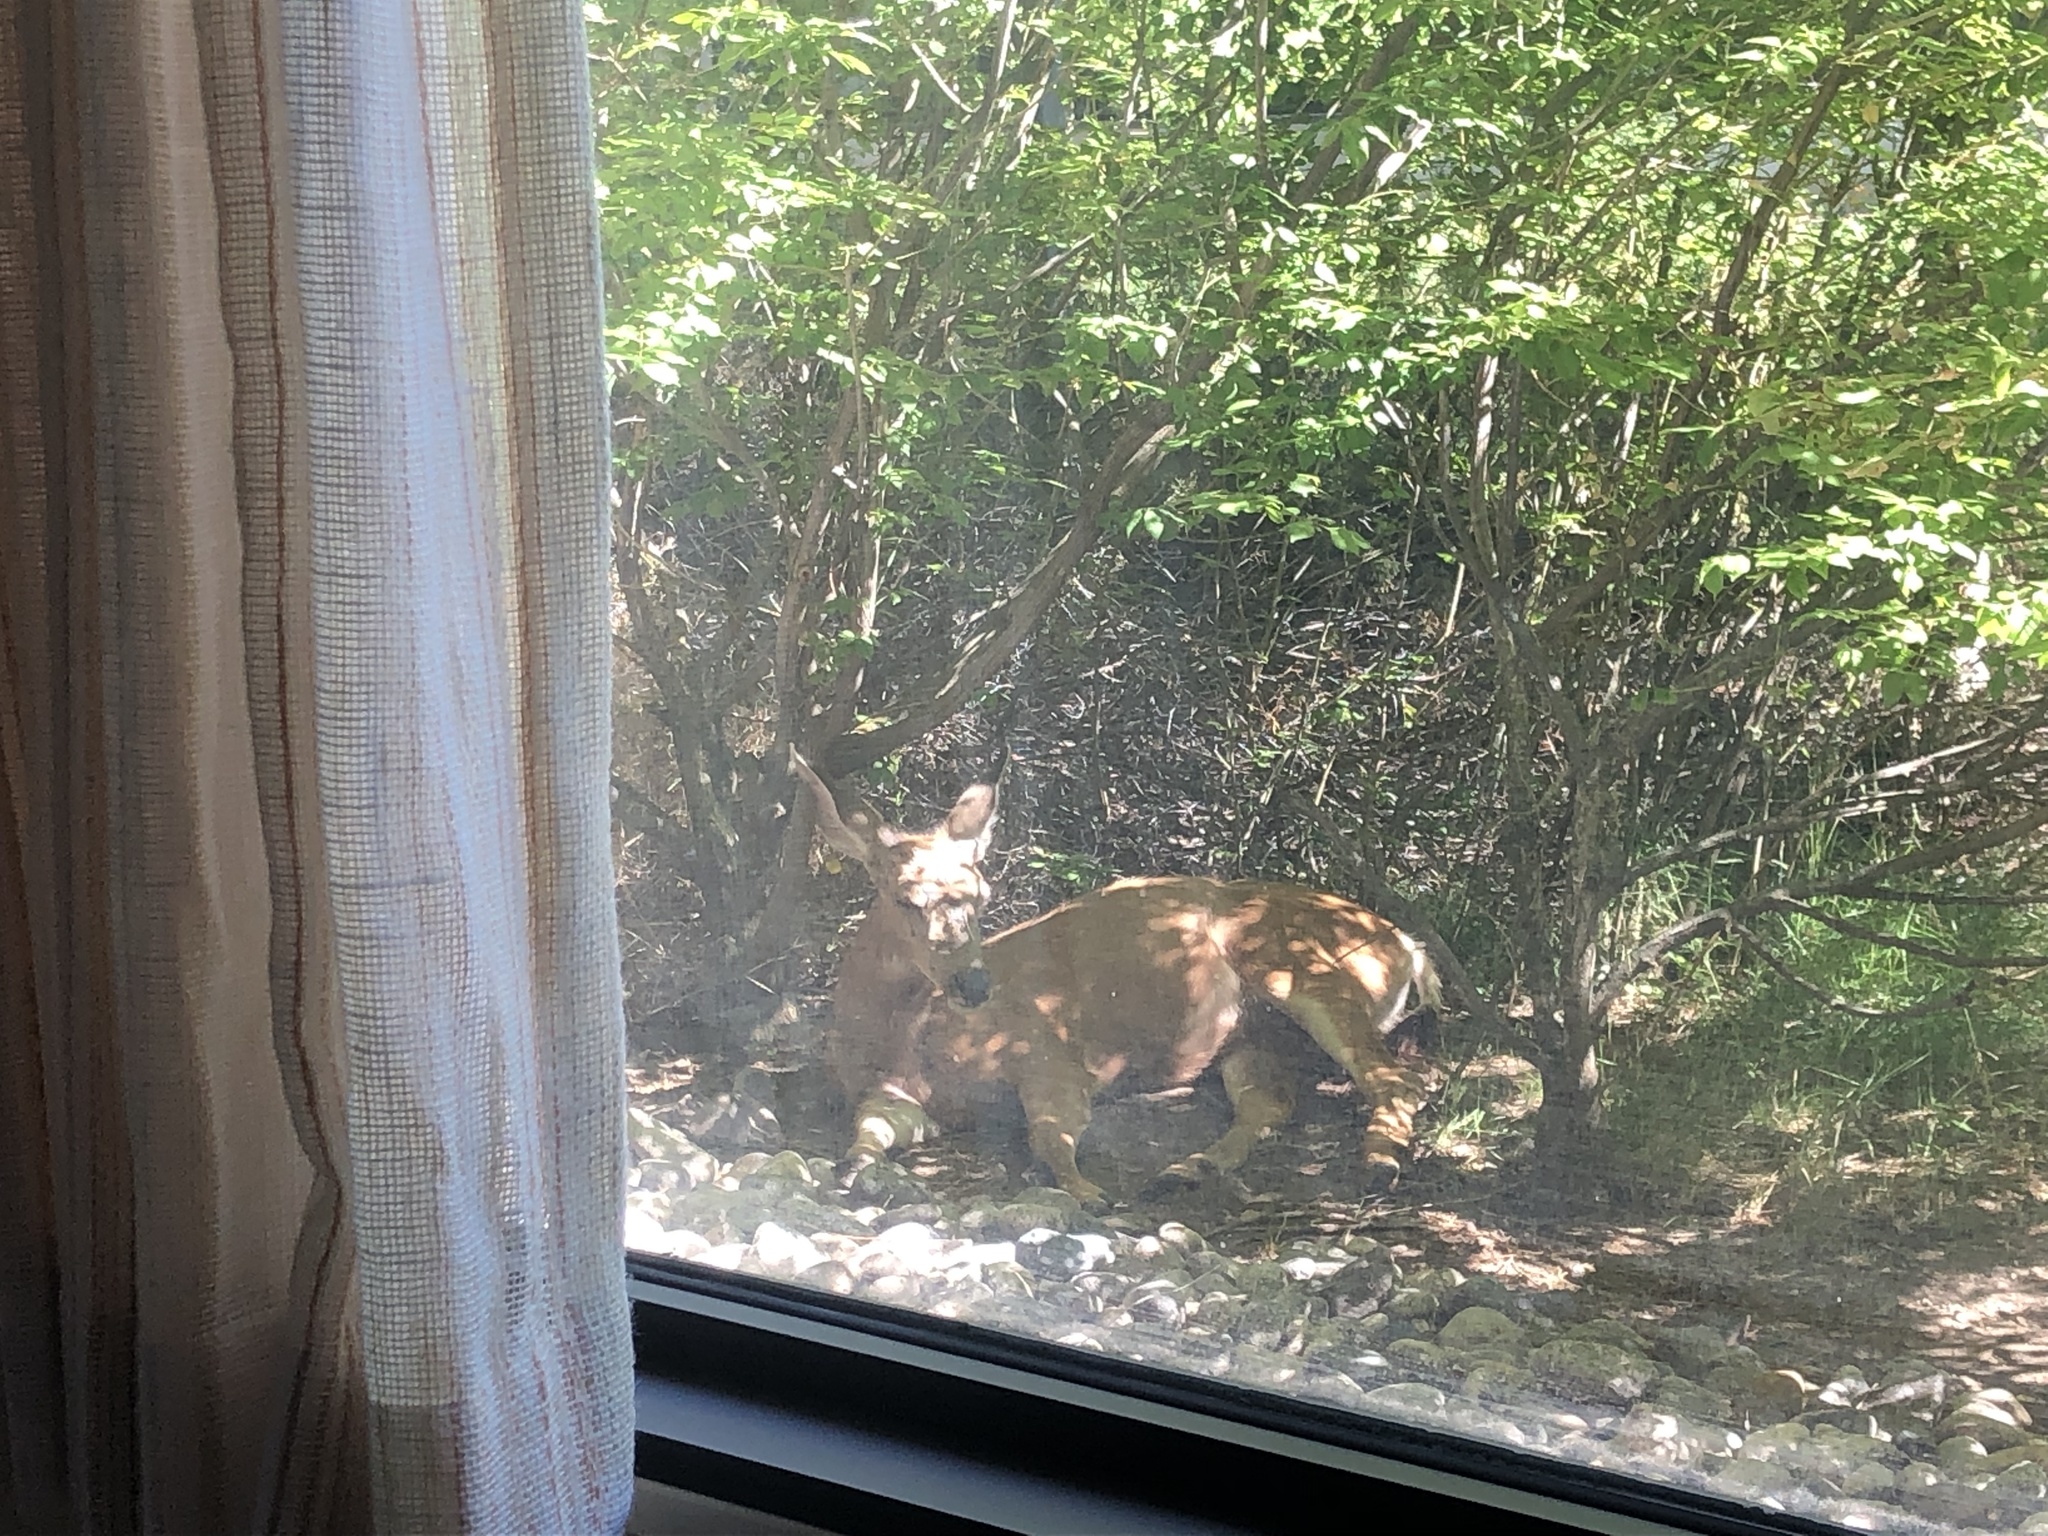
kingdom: Animalia
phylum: Chordata
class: Mammalia
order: Artiodactyla
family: Cervidae
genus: Odocoileus
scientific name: Odocoileus hemionus
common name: Mule deer
